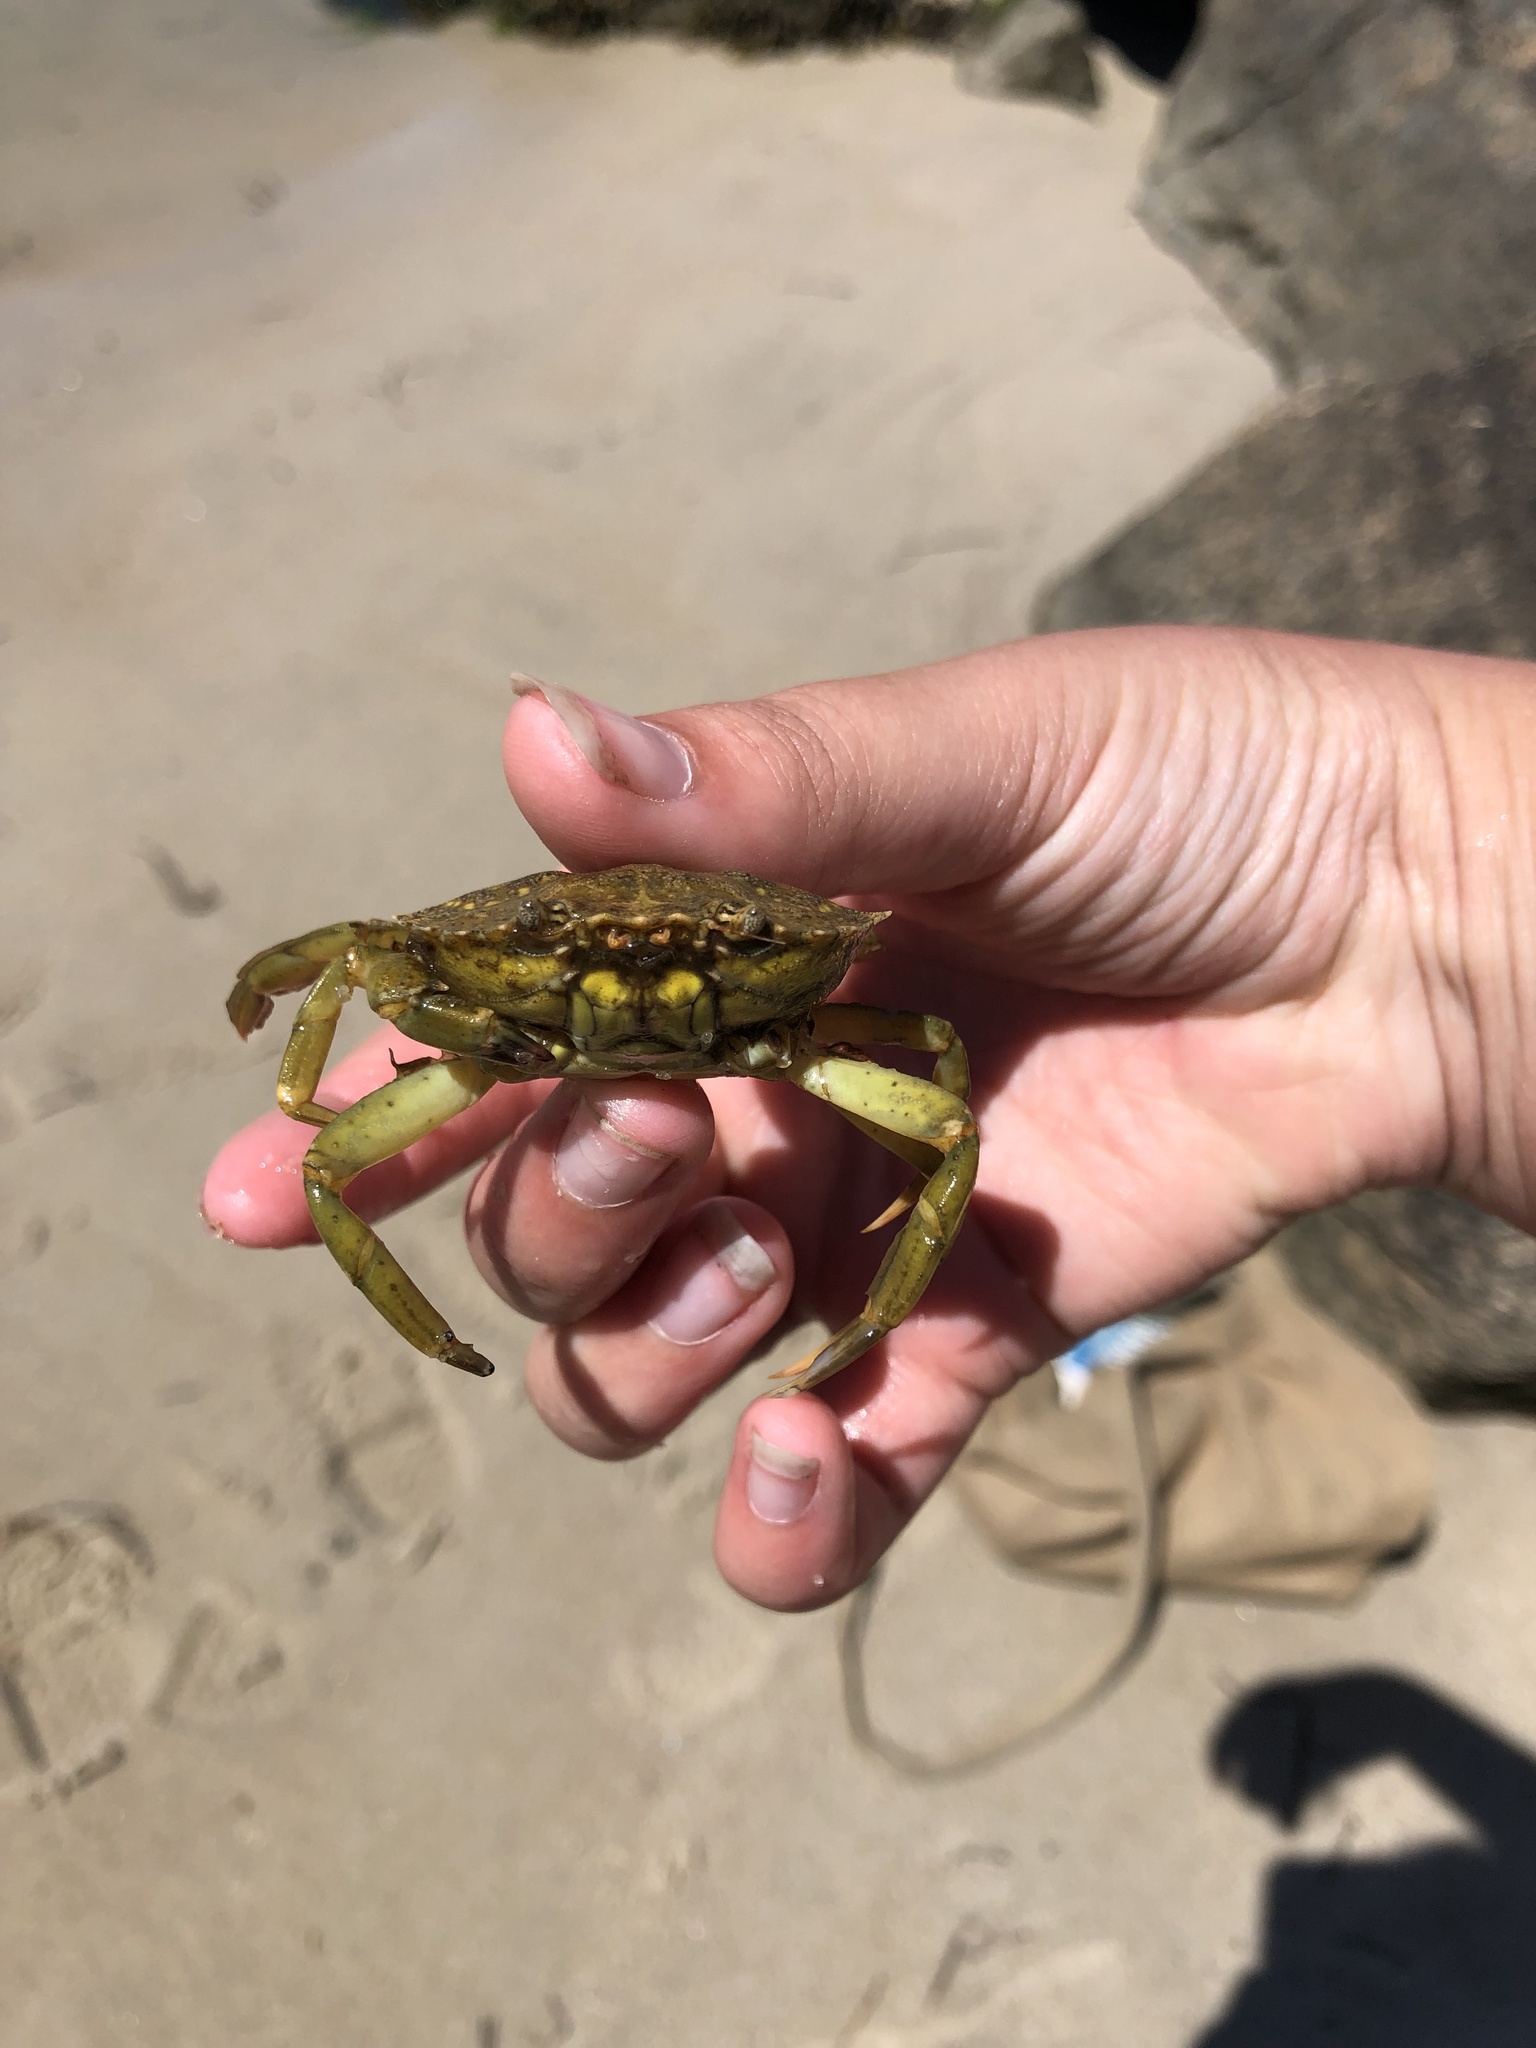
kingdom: Animalia
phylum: Arthropoda
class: Malacostraca
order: Decapoda
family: Carcinidae
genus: Carcinus
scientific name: Carcinus maenas
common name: European green crab
